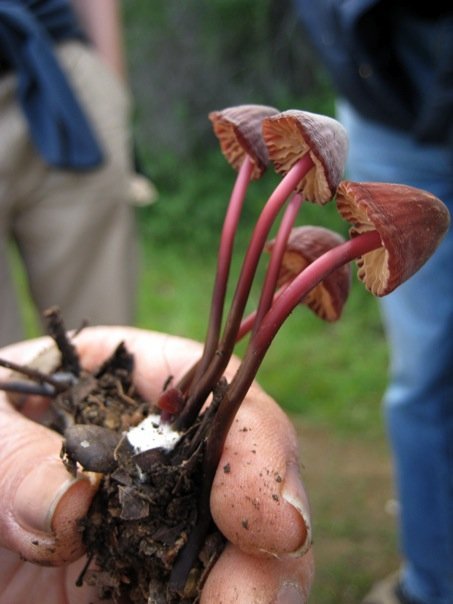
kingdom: Fungi
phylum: Basidiomycota
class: Agaricomycetes
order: Agaricales
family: Marasmiaceae
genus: Marasmius
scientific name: Marasmius plicatulus
